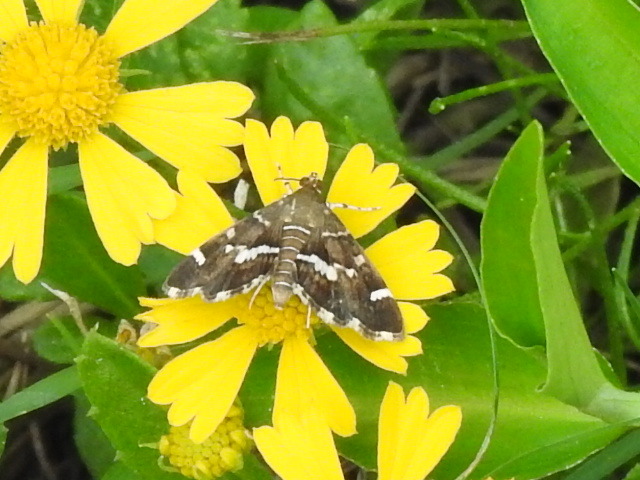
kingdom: Animalia
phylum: Arthropoda
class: Insecta
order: Lepidoptera
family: Crambidae
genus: Hymenia
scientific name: Hymenia perspectalis
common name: Spotted beet webworm
